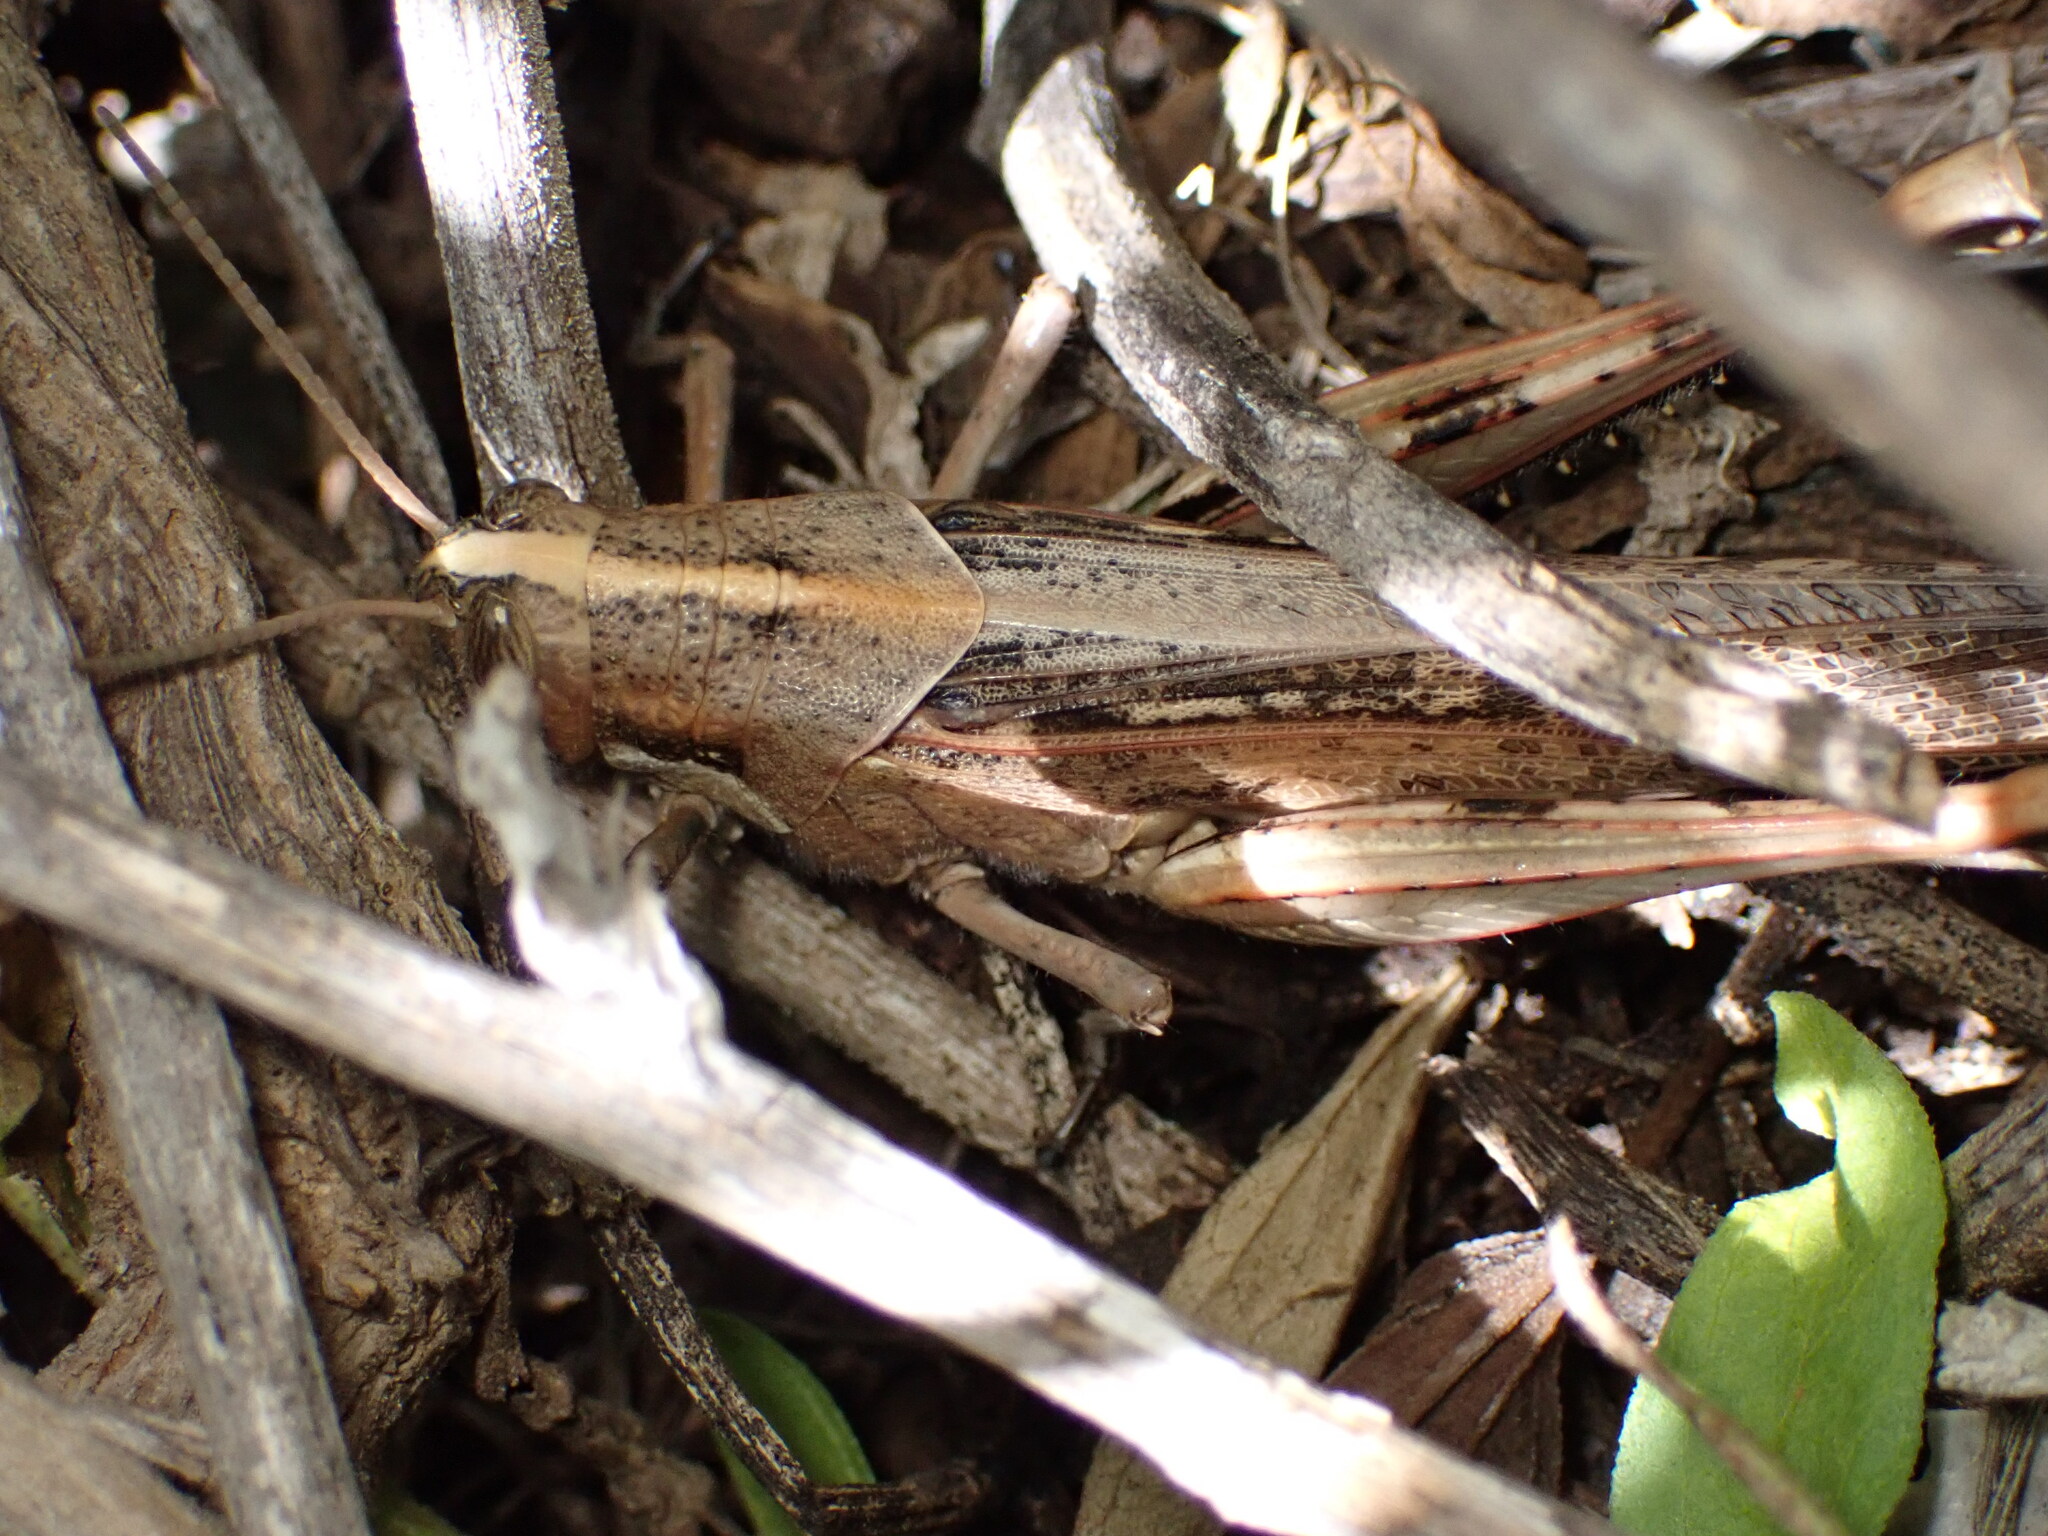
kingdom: Animalia
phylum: Arthropoda
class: Insecta
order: Orthoptera
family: Acrididae
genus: Schistocerca
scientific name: Schistocerca nitens
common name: Vagrant grasshopper
